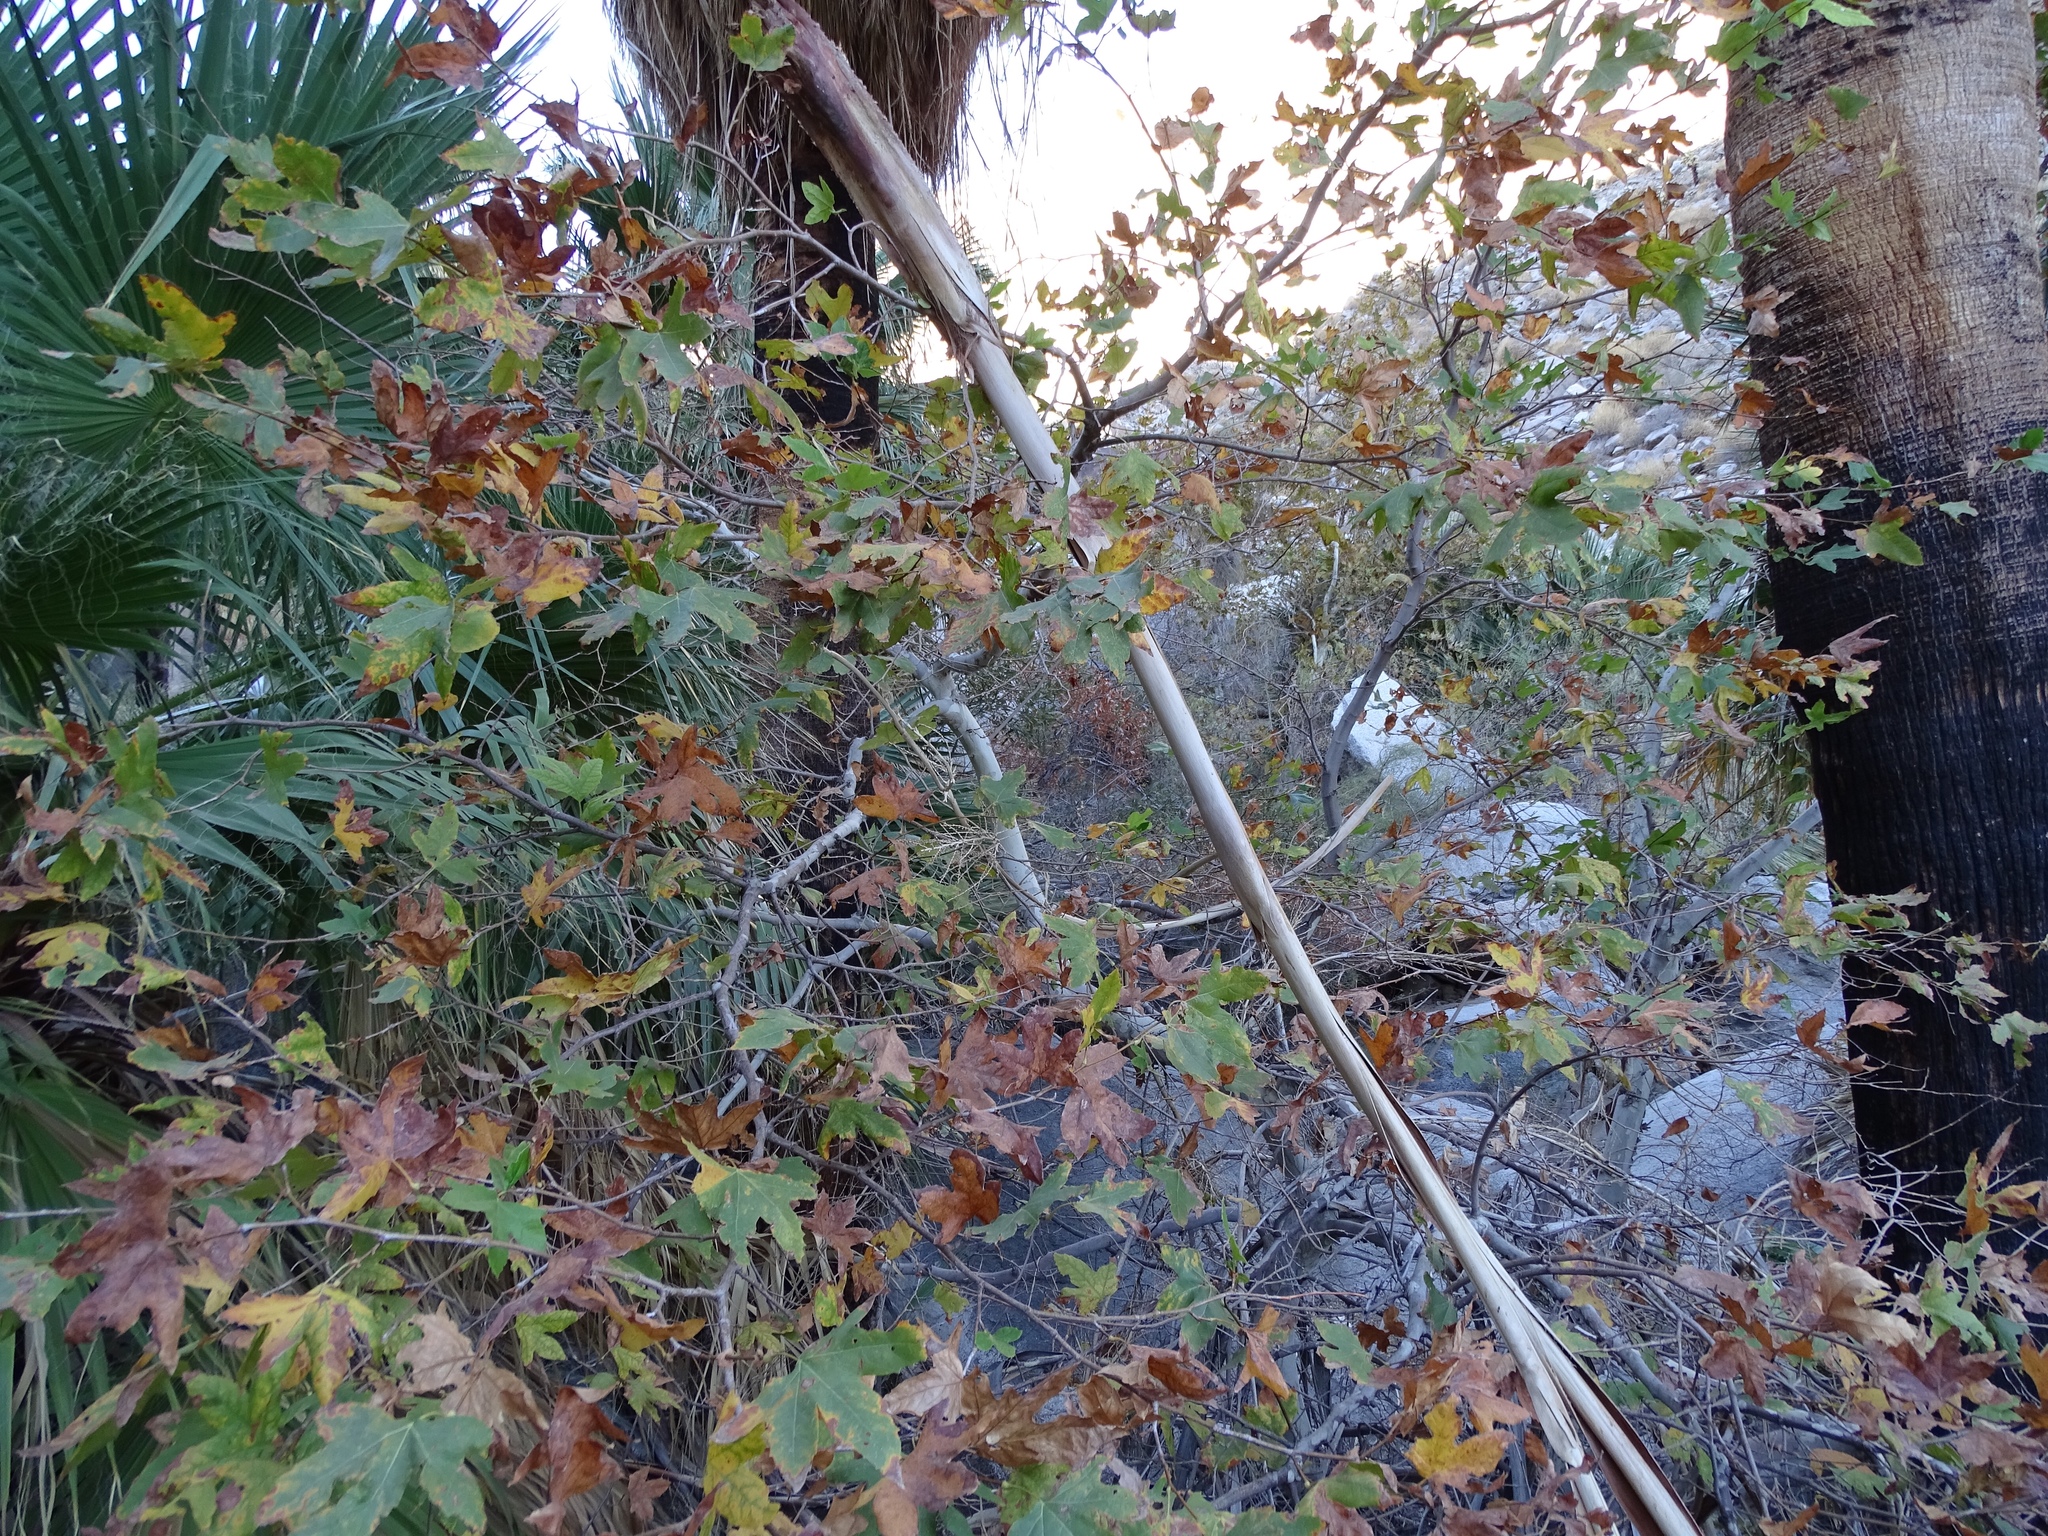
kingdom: Plantae
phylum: Tracheophyta
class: Magnoliopsida
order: Proteales
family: Platanaceae
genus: Platanus
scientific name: Platanus racemosa
